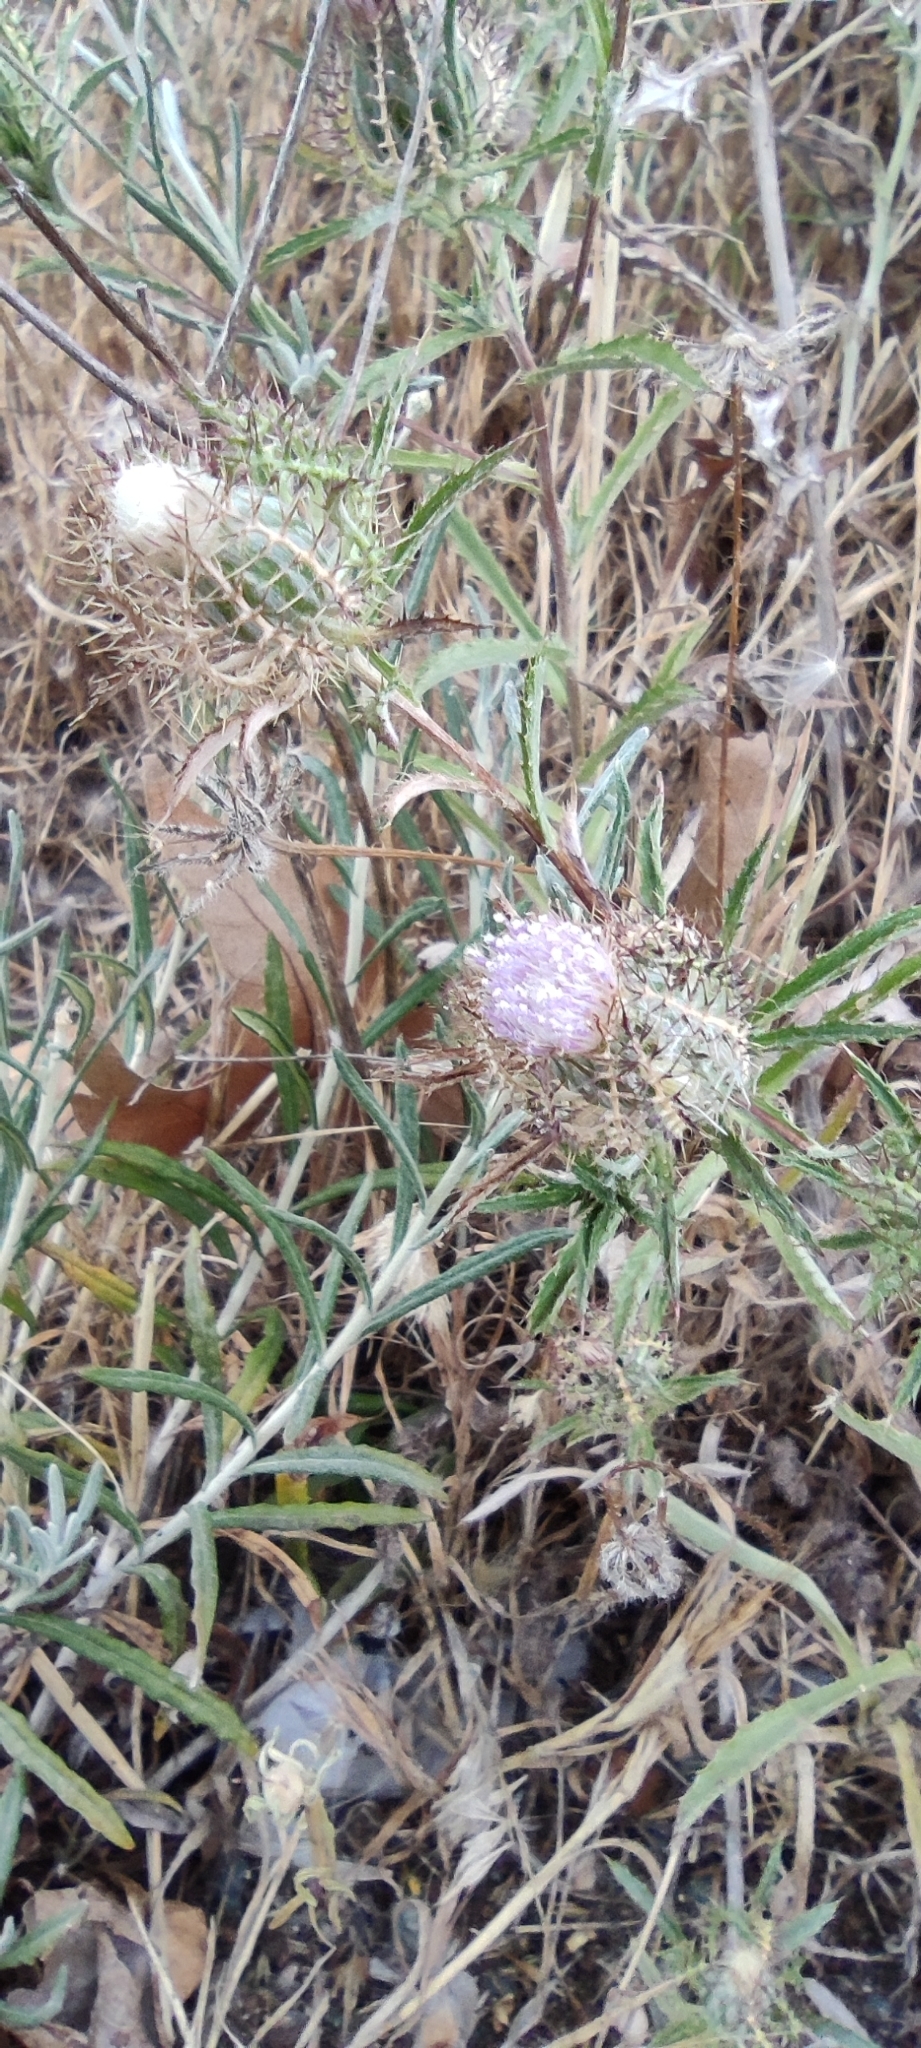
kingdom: Plantae
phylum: Tracheophyta
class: Magnoliopsida
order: Asterales
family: Asteraceae
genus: Atractylis
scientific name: Atractylis cancellata
